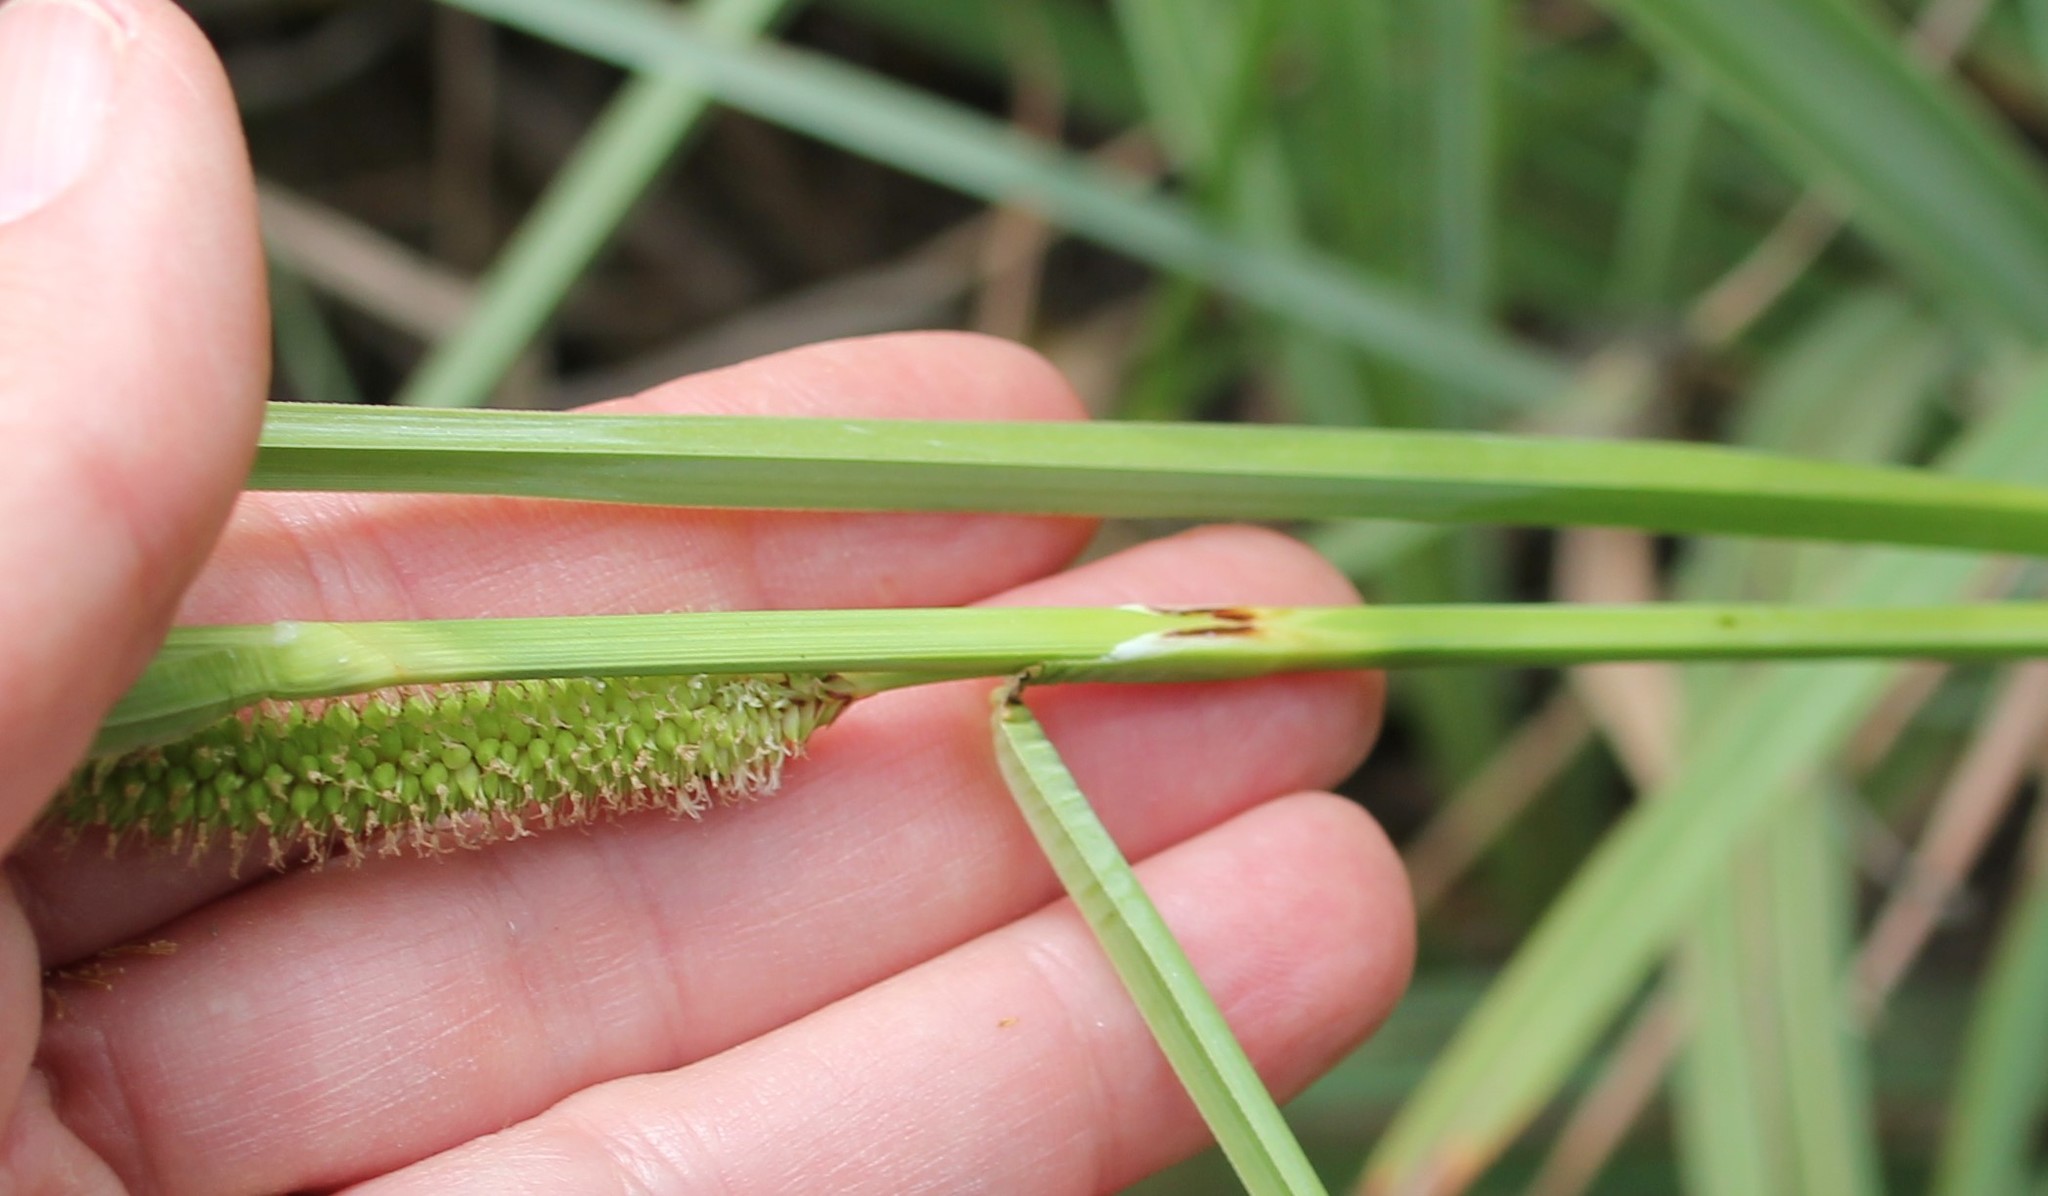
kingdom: Plantae
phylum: Tracheophyta
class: Liliopsida
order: Poales
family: Cyperaceae
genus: Carex
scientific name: Carex spissa
